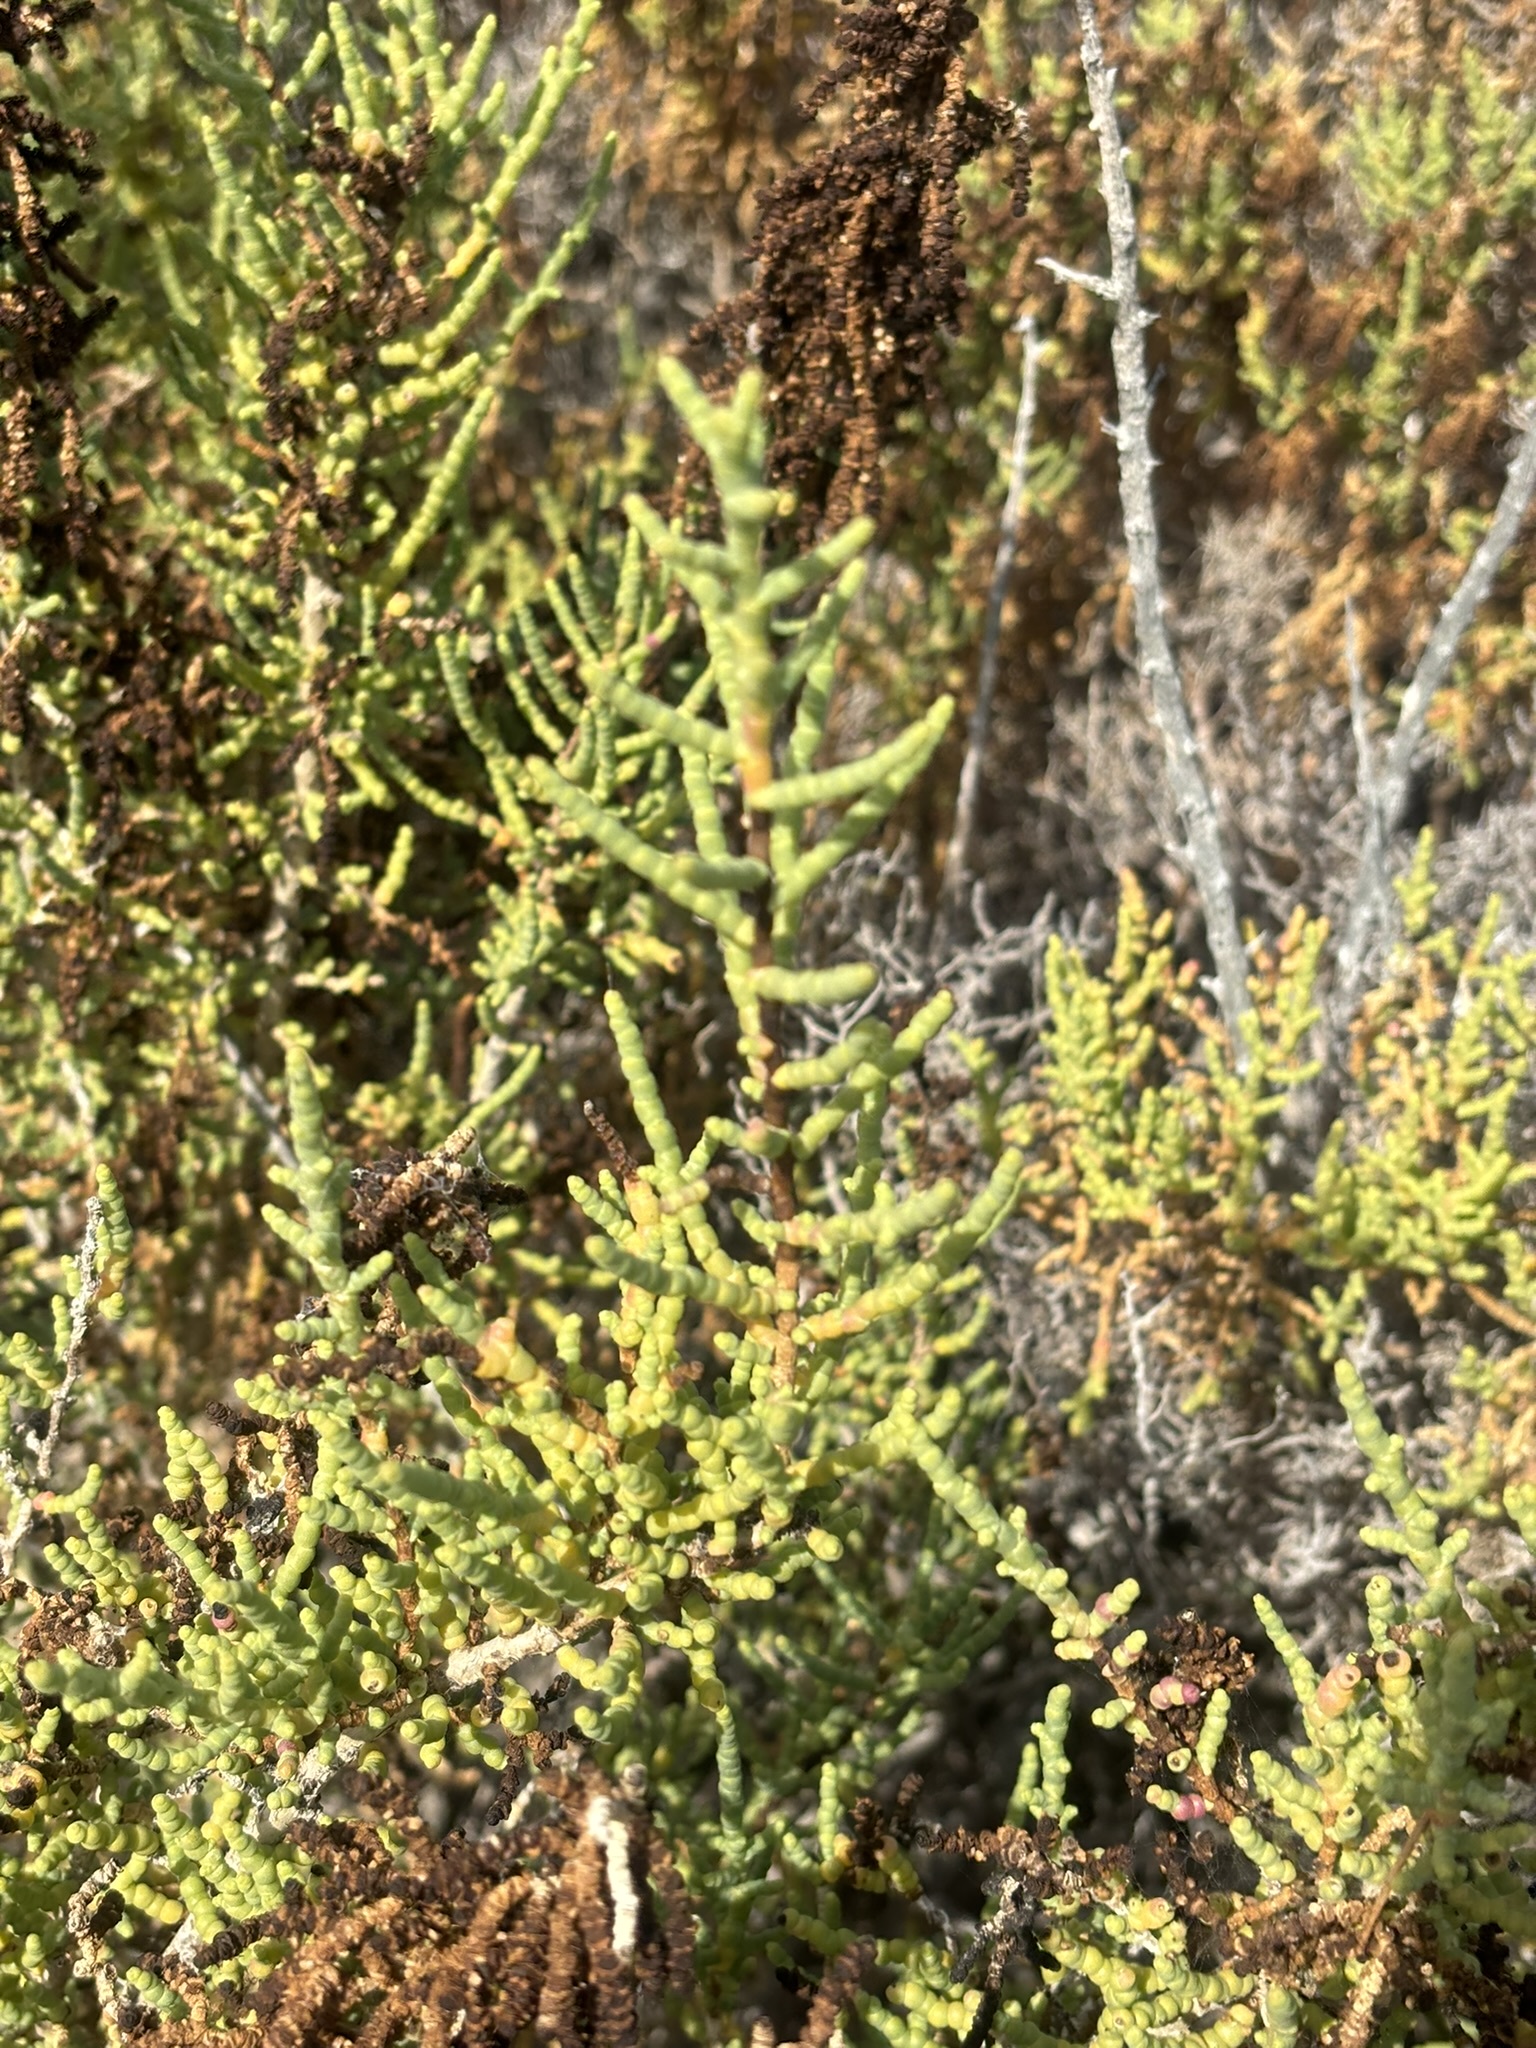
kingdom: Plantae
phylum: Tracheophyta
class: Magnoliopsida
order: Caryophyllales
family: Amaranthaceae
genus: Allenrolfea
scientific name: Allenrolfea occidentalis
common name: Iodine-bush
